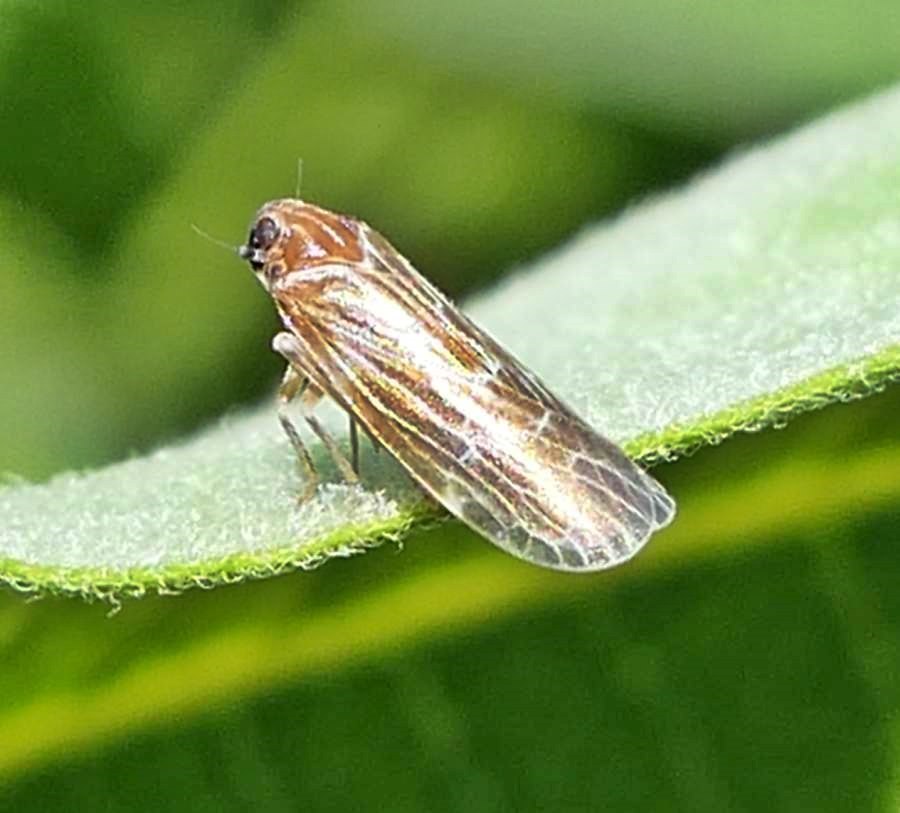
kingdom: Animalia
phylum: Arthropoda
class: Insecta
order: Hemiptera
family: Achilidae
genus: Synecdoche
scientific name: Synecdoche dimidiata
